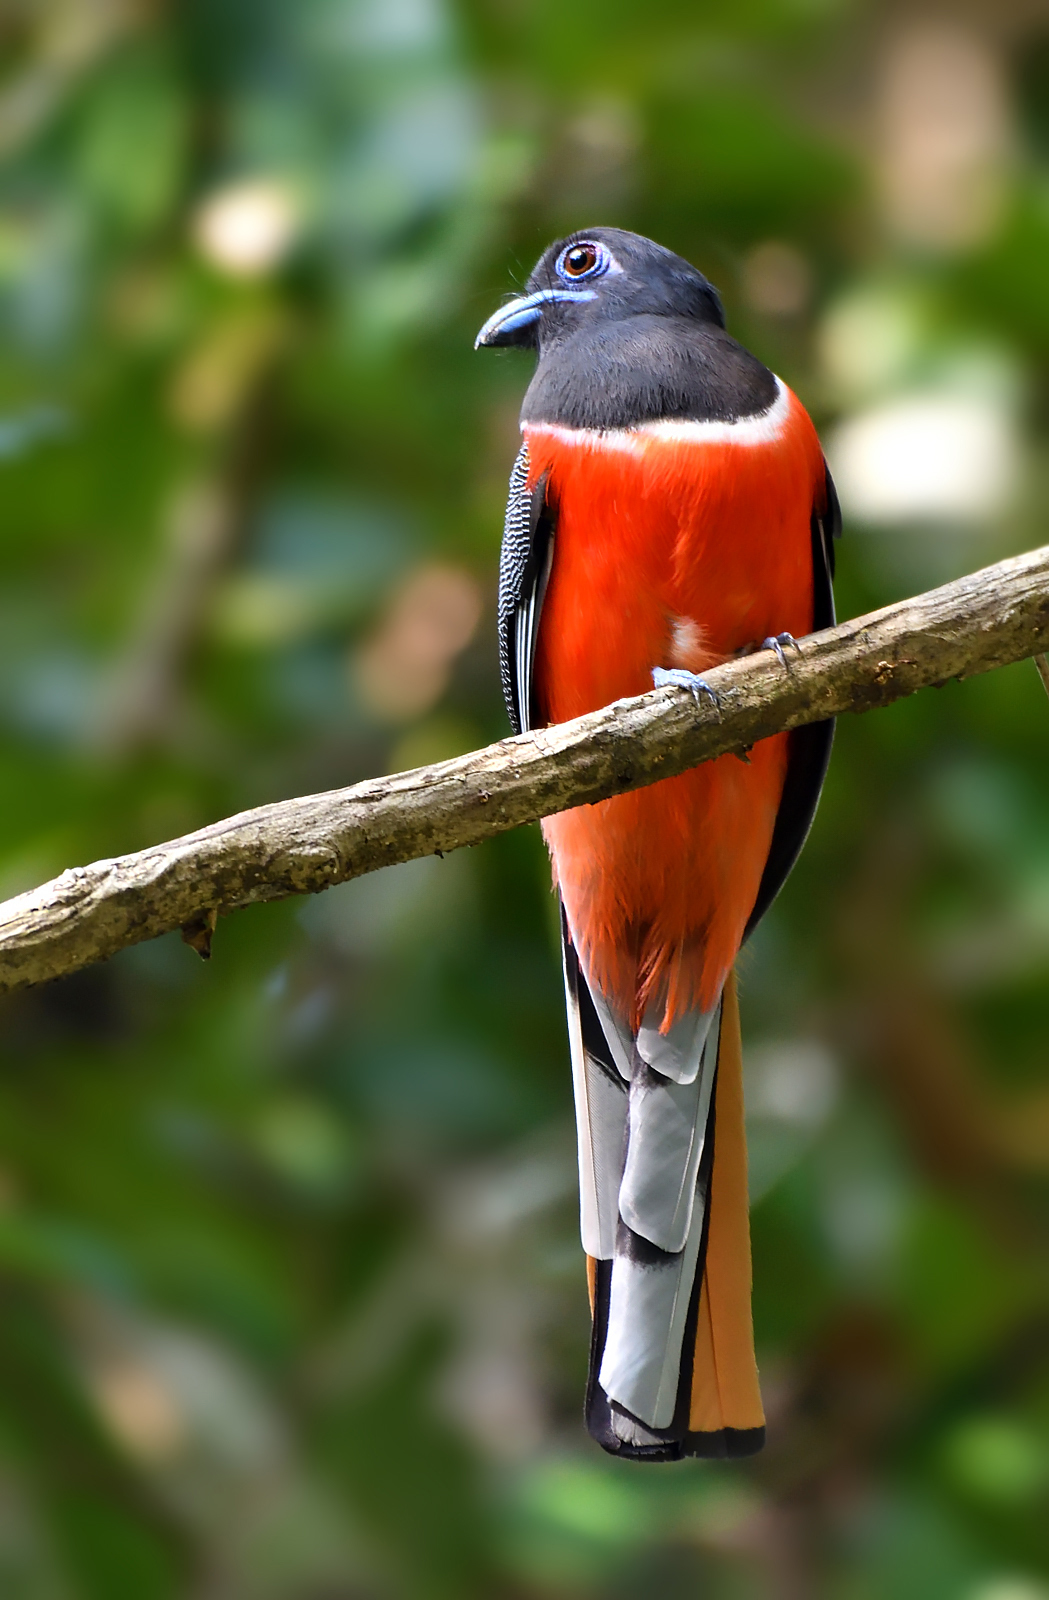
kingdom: Animalia
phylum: Chordata
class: Aves
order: Trogoniformes
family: Trogonidae
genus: Harpactes
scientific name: Harpactes fasciatus
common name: Malabar trogon
